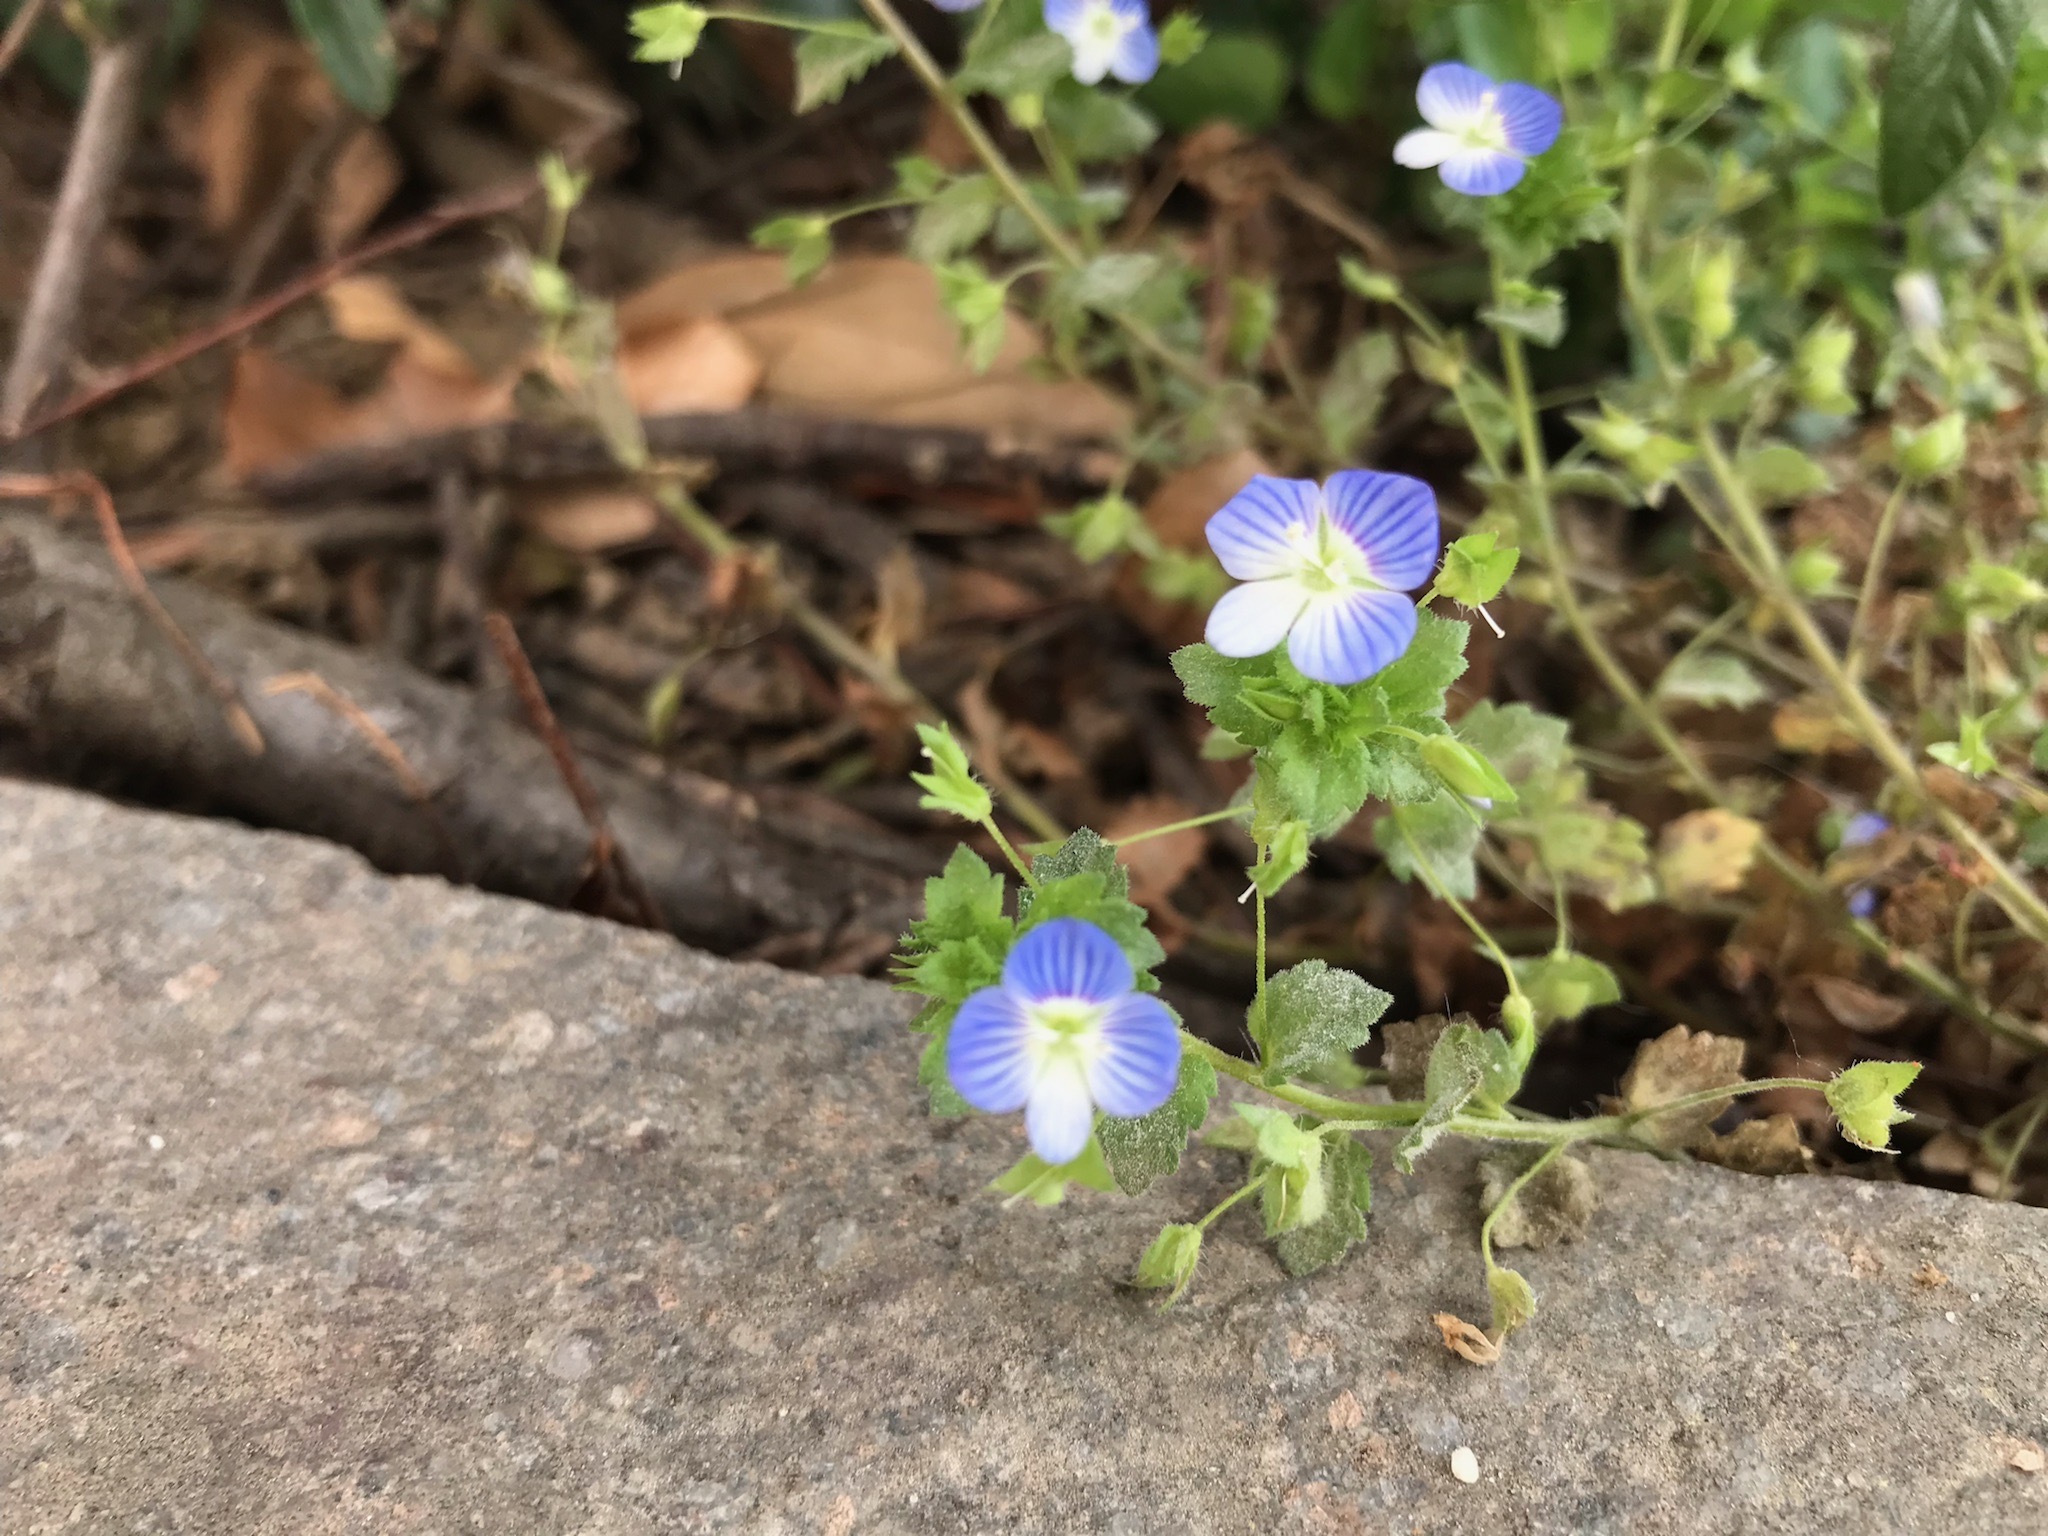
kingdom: Plantae
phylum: Tracheophyta
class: Magnoliopsida
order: Lamiales
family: Plantaginaceae
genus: Veronica
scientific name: Veronica persica
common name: Common field-speedwell
